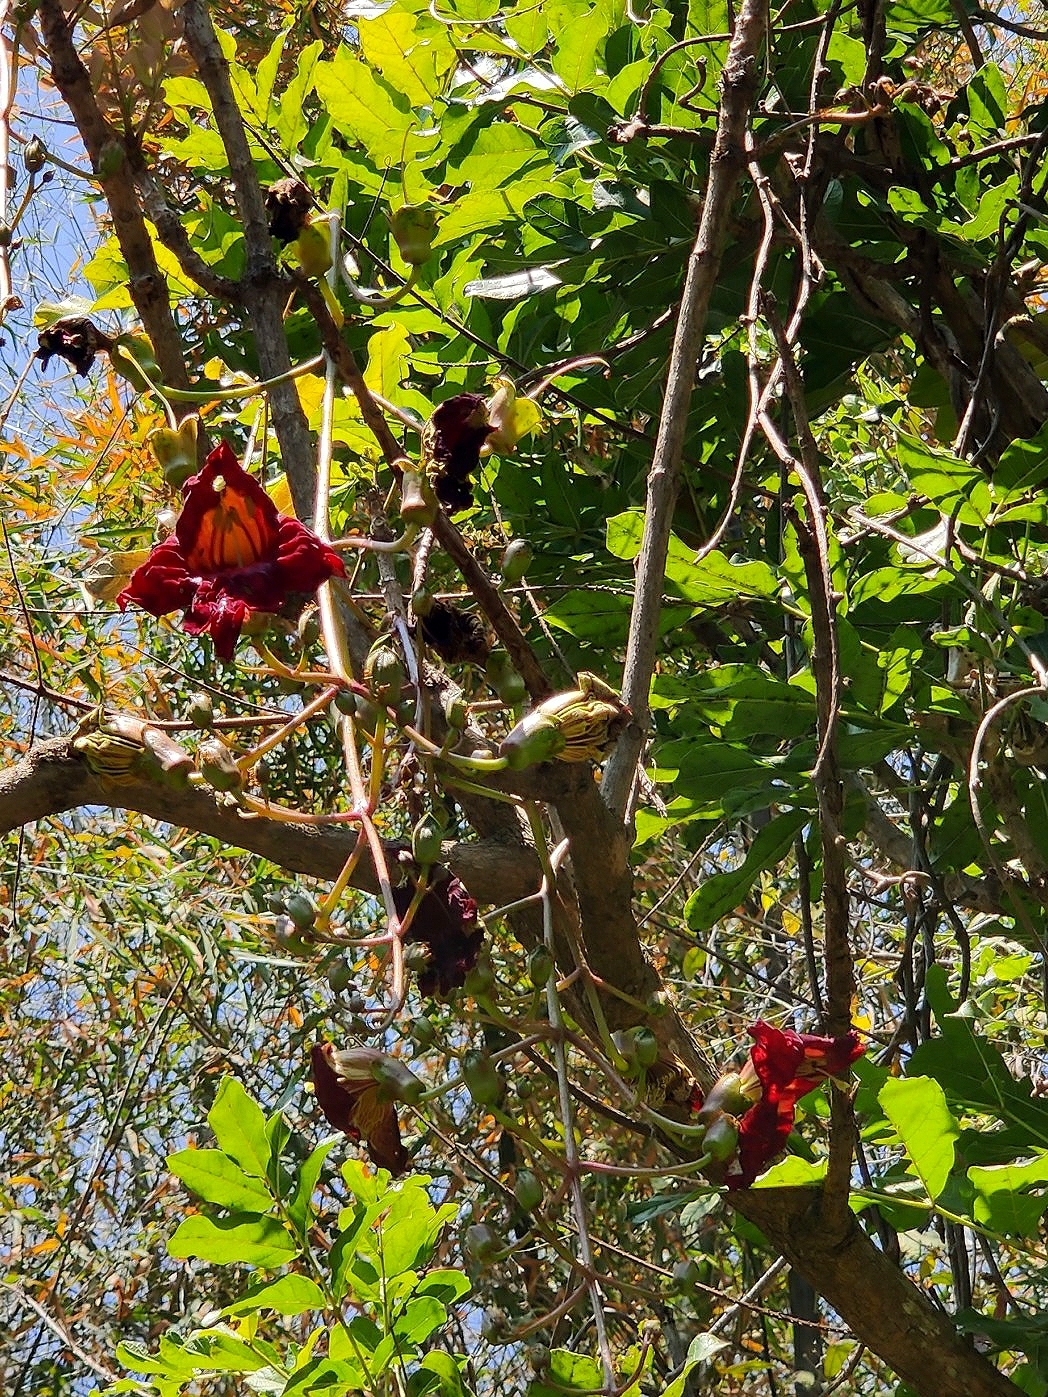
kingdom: Plantae
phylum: Tracheophyta
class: Magnoliopsida
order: Lamiales
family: Bignoniaceae
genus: Kigelia
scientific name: Kigelia africana
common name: Sausage tree
